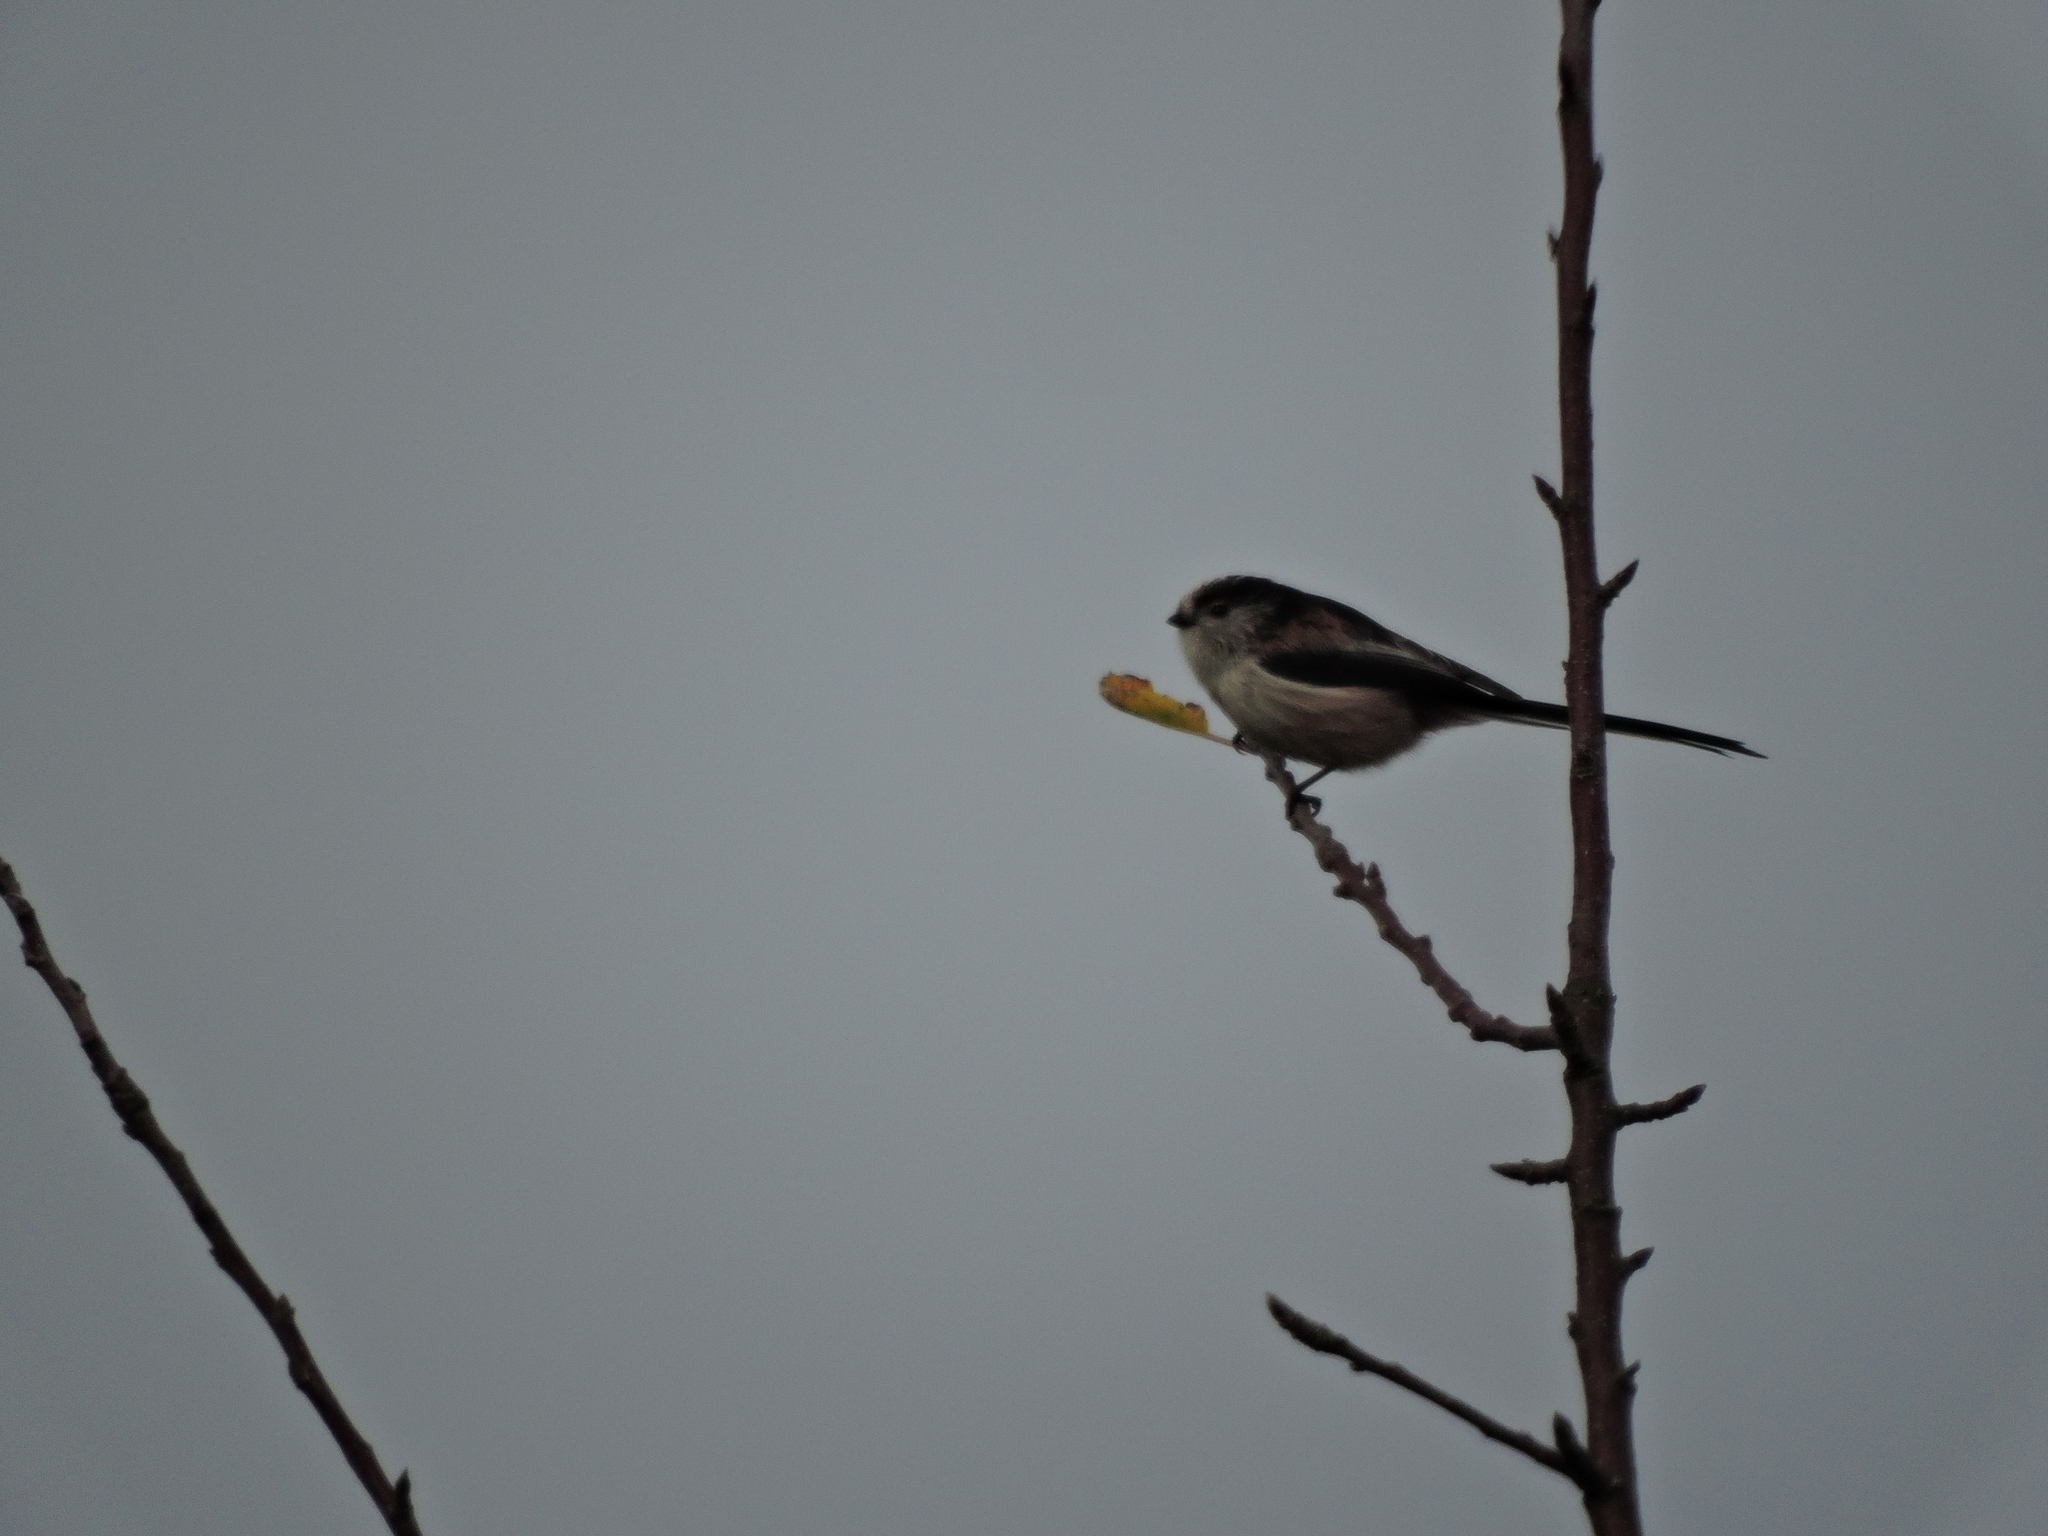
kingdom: Animalia
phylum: Chordata
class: Aves
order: Passeriformes
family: Aegithalidae
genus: Aegithalos
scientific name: Aegithalos caudatus
